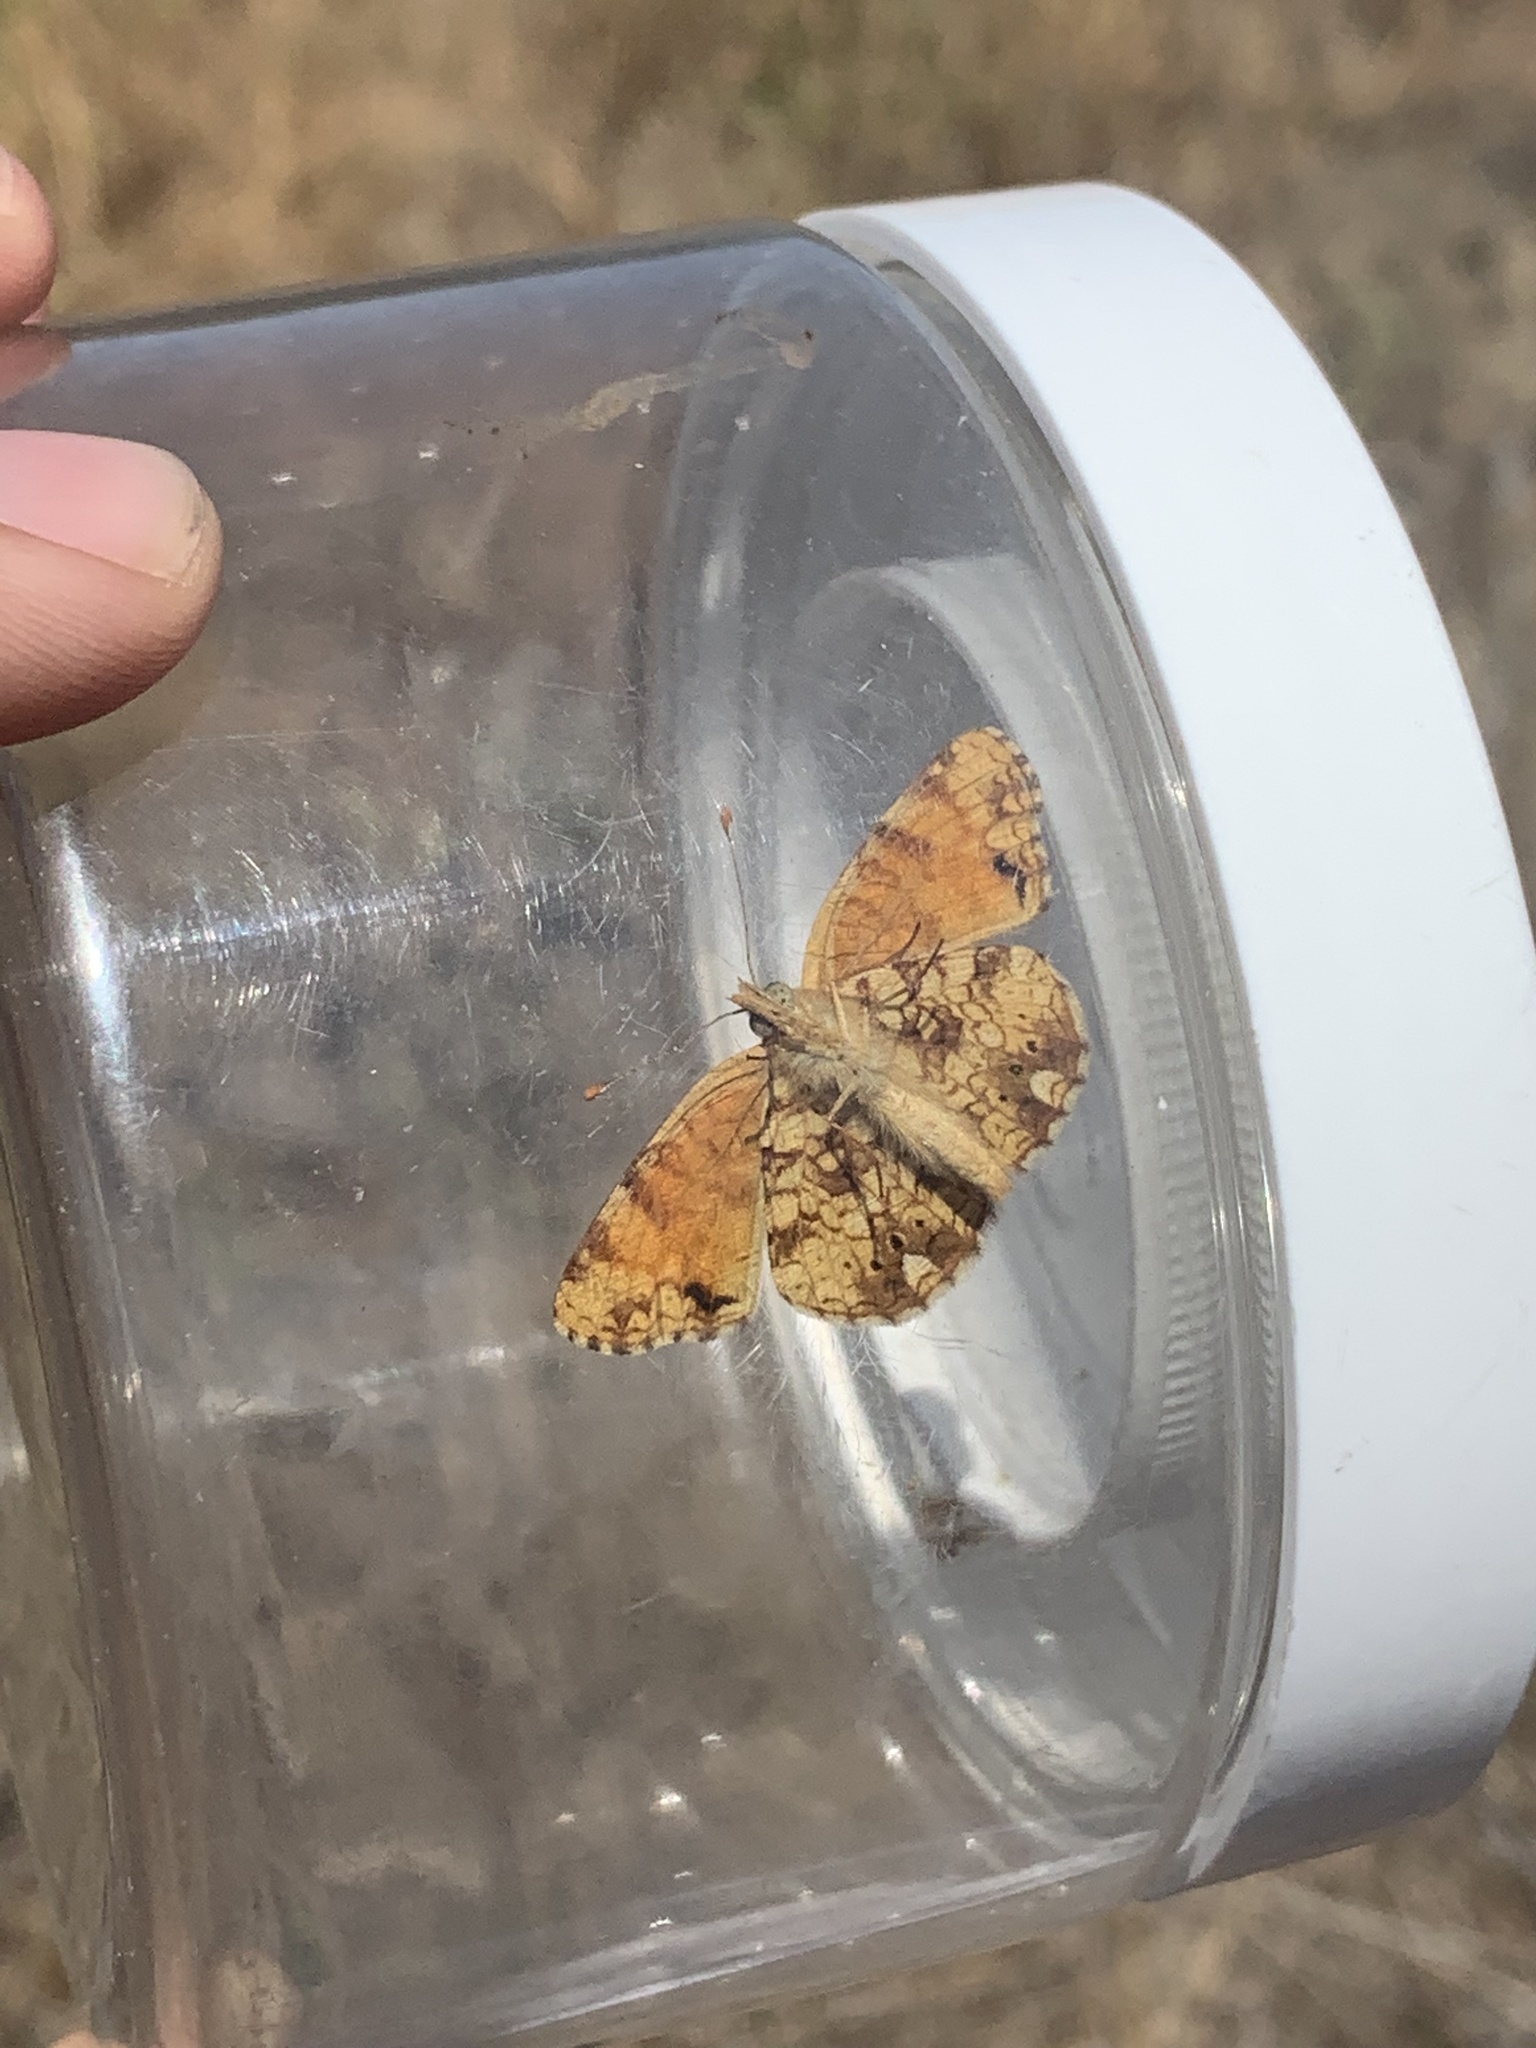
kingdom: Animalia
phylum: Arthropoda
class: Insecta
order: Lepidoptera
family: Nymphalidae
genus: Eresia
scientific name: Eresia aveyrona
